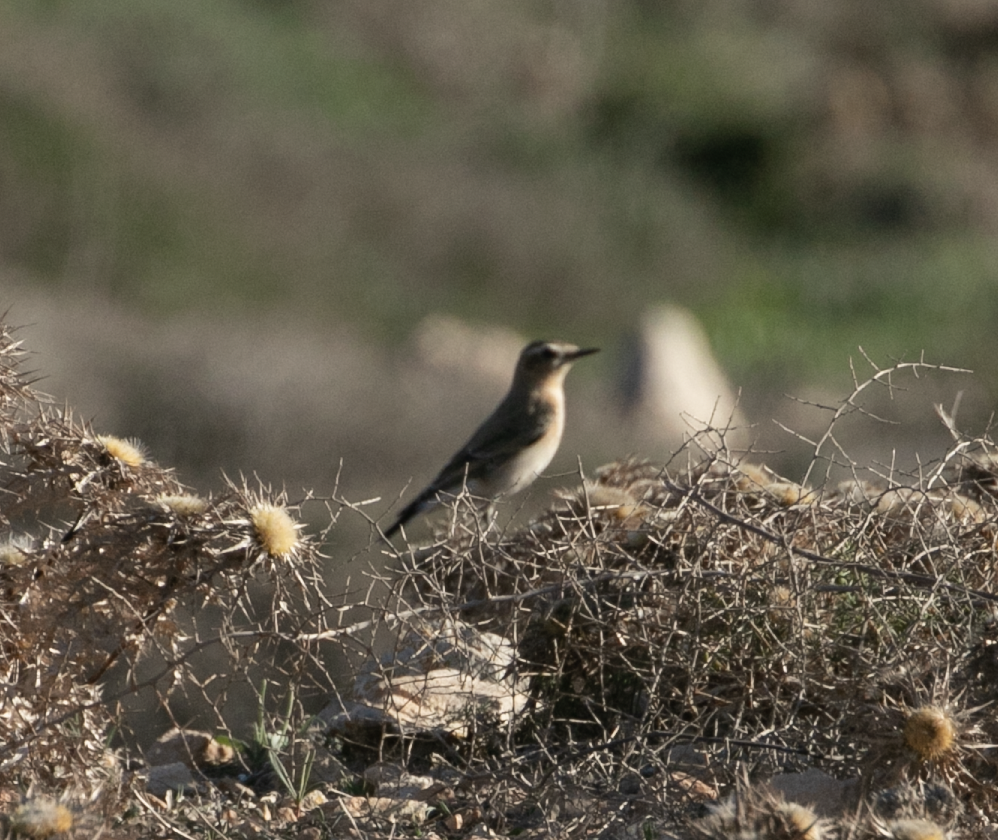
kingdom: Animalia
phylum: Chordata
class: Aves
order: Passeriformes
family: Muscicapidae
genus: Oenanthe
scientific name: Oenanthe oenanthe
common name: Northern wheatear
